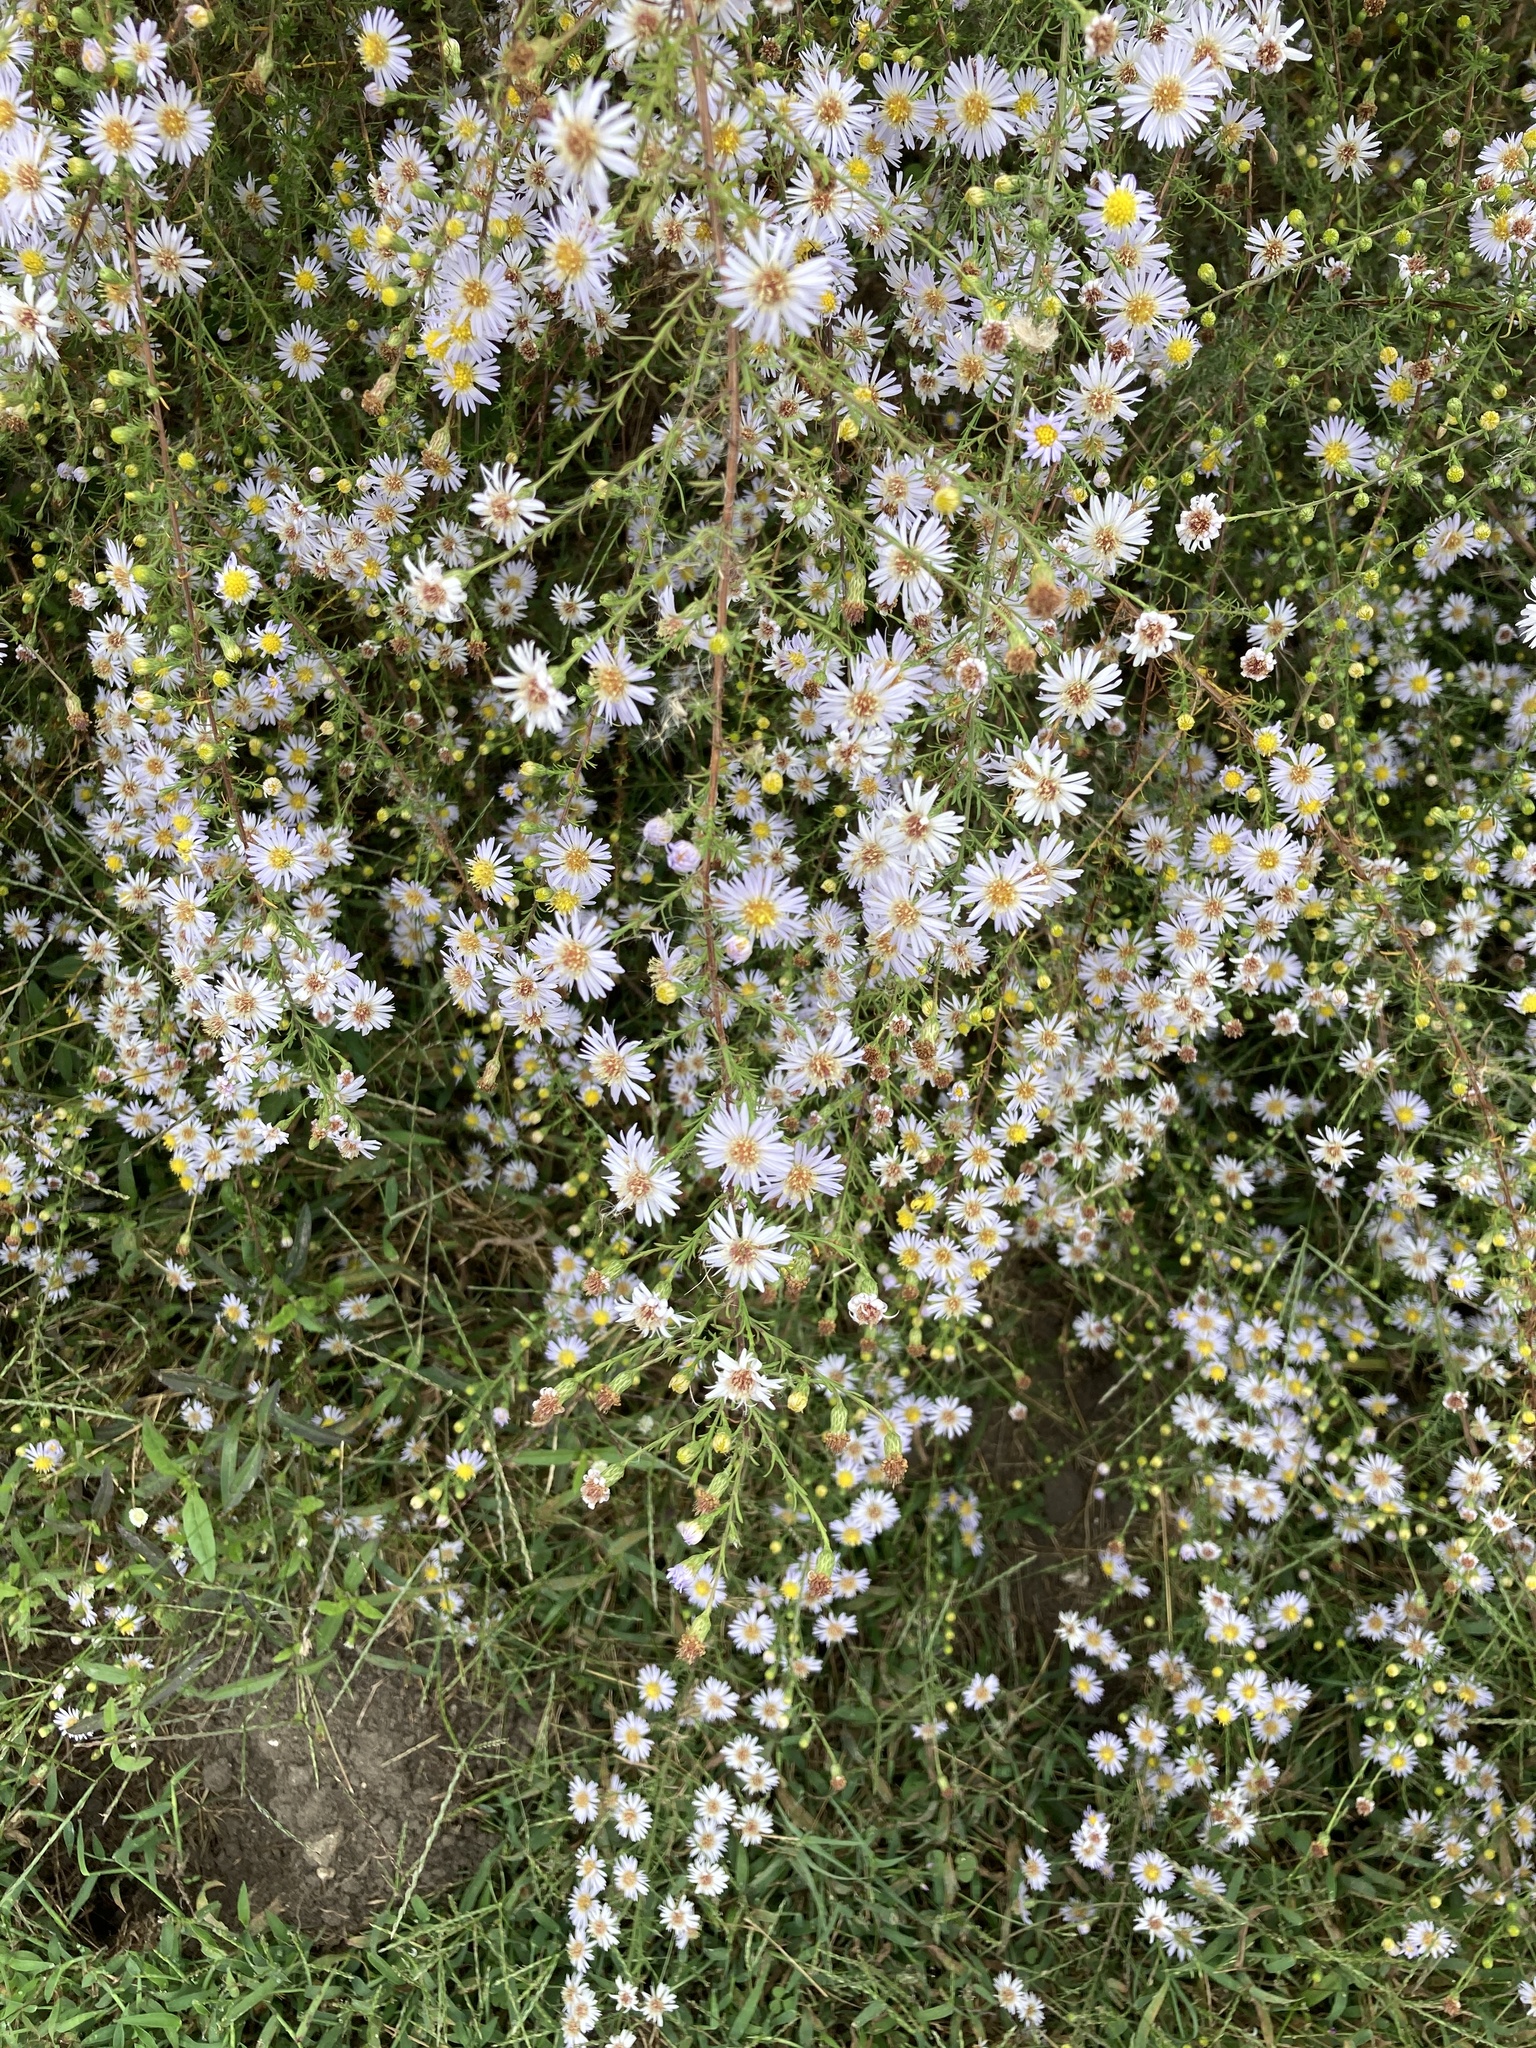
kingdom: Plantae
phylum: Tracheophyta
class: Magnoliopsida
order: Asterales
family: Asteraceae
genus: Symphyotrichum
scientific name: Symphyotrichum dumosum
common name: Bushy aster
